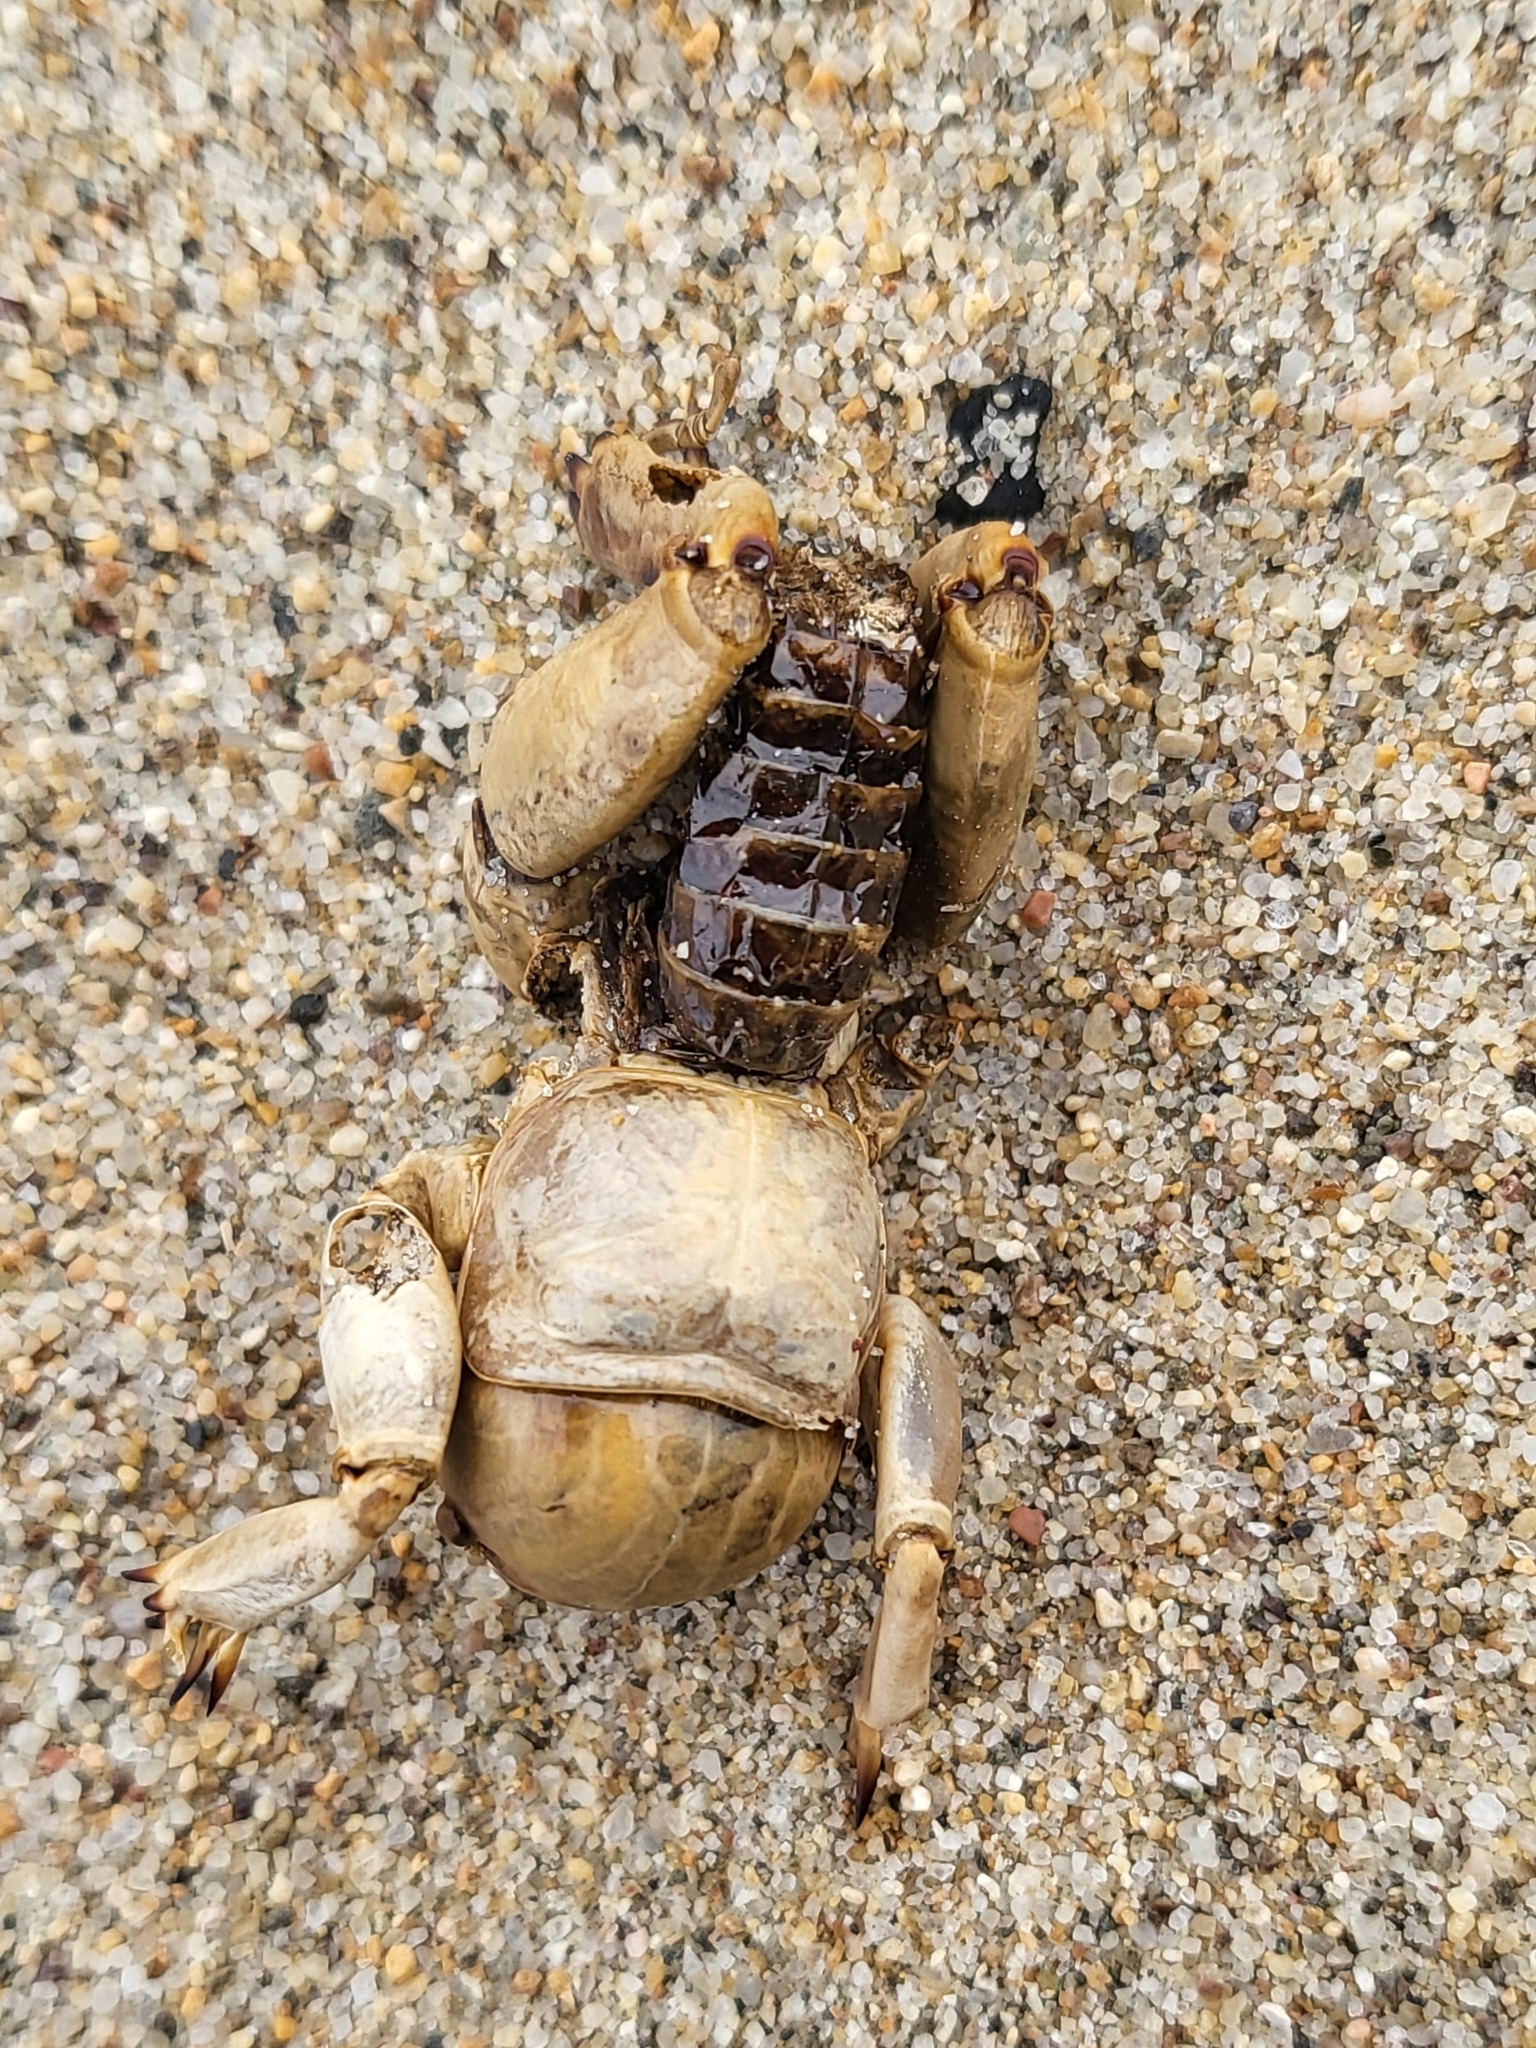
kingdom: Animalia
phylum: Arthropoda
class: Insecta
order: Orthoptera
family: Stenopelmatidae
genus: Ammopelmatus
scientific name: Ammopelmatus muwu
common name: Port conception jerusalem cricket
